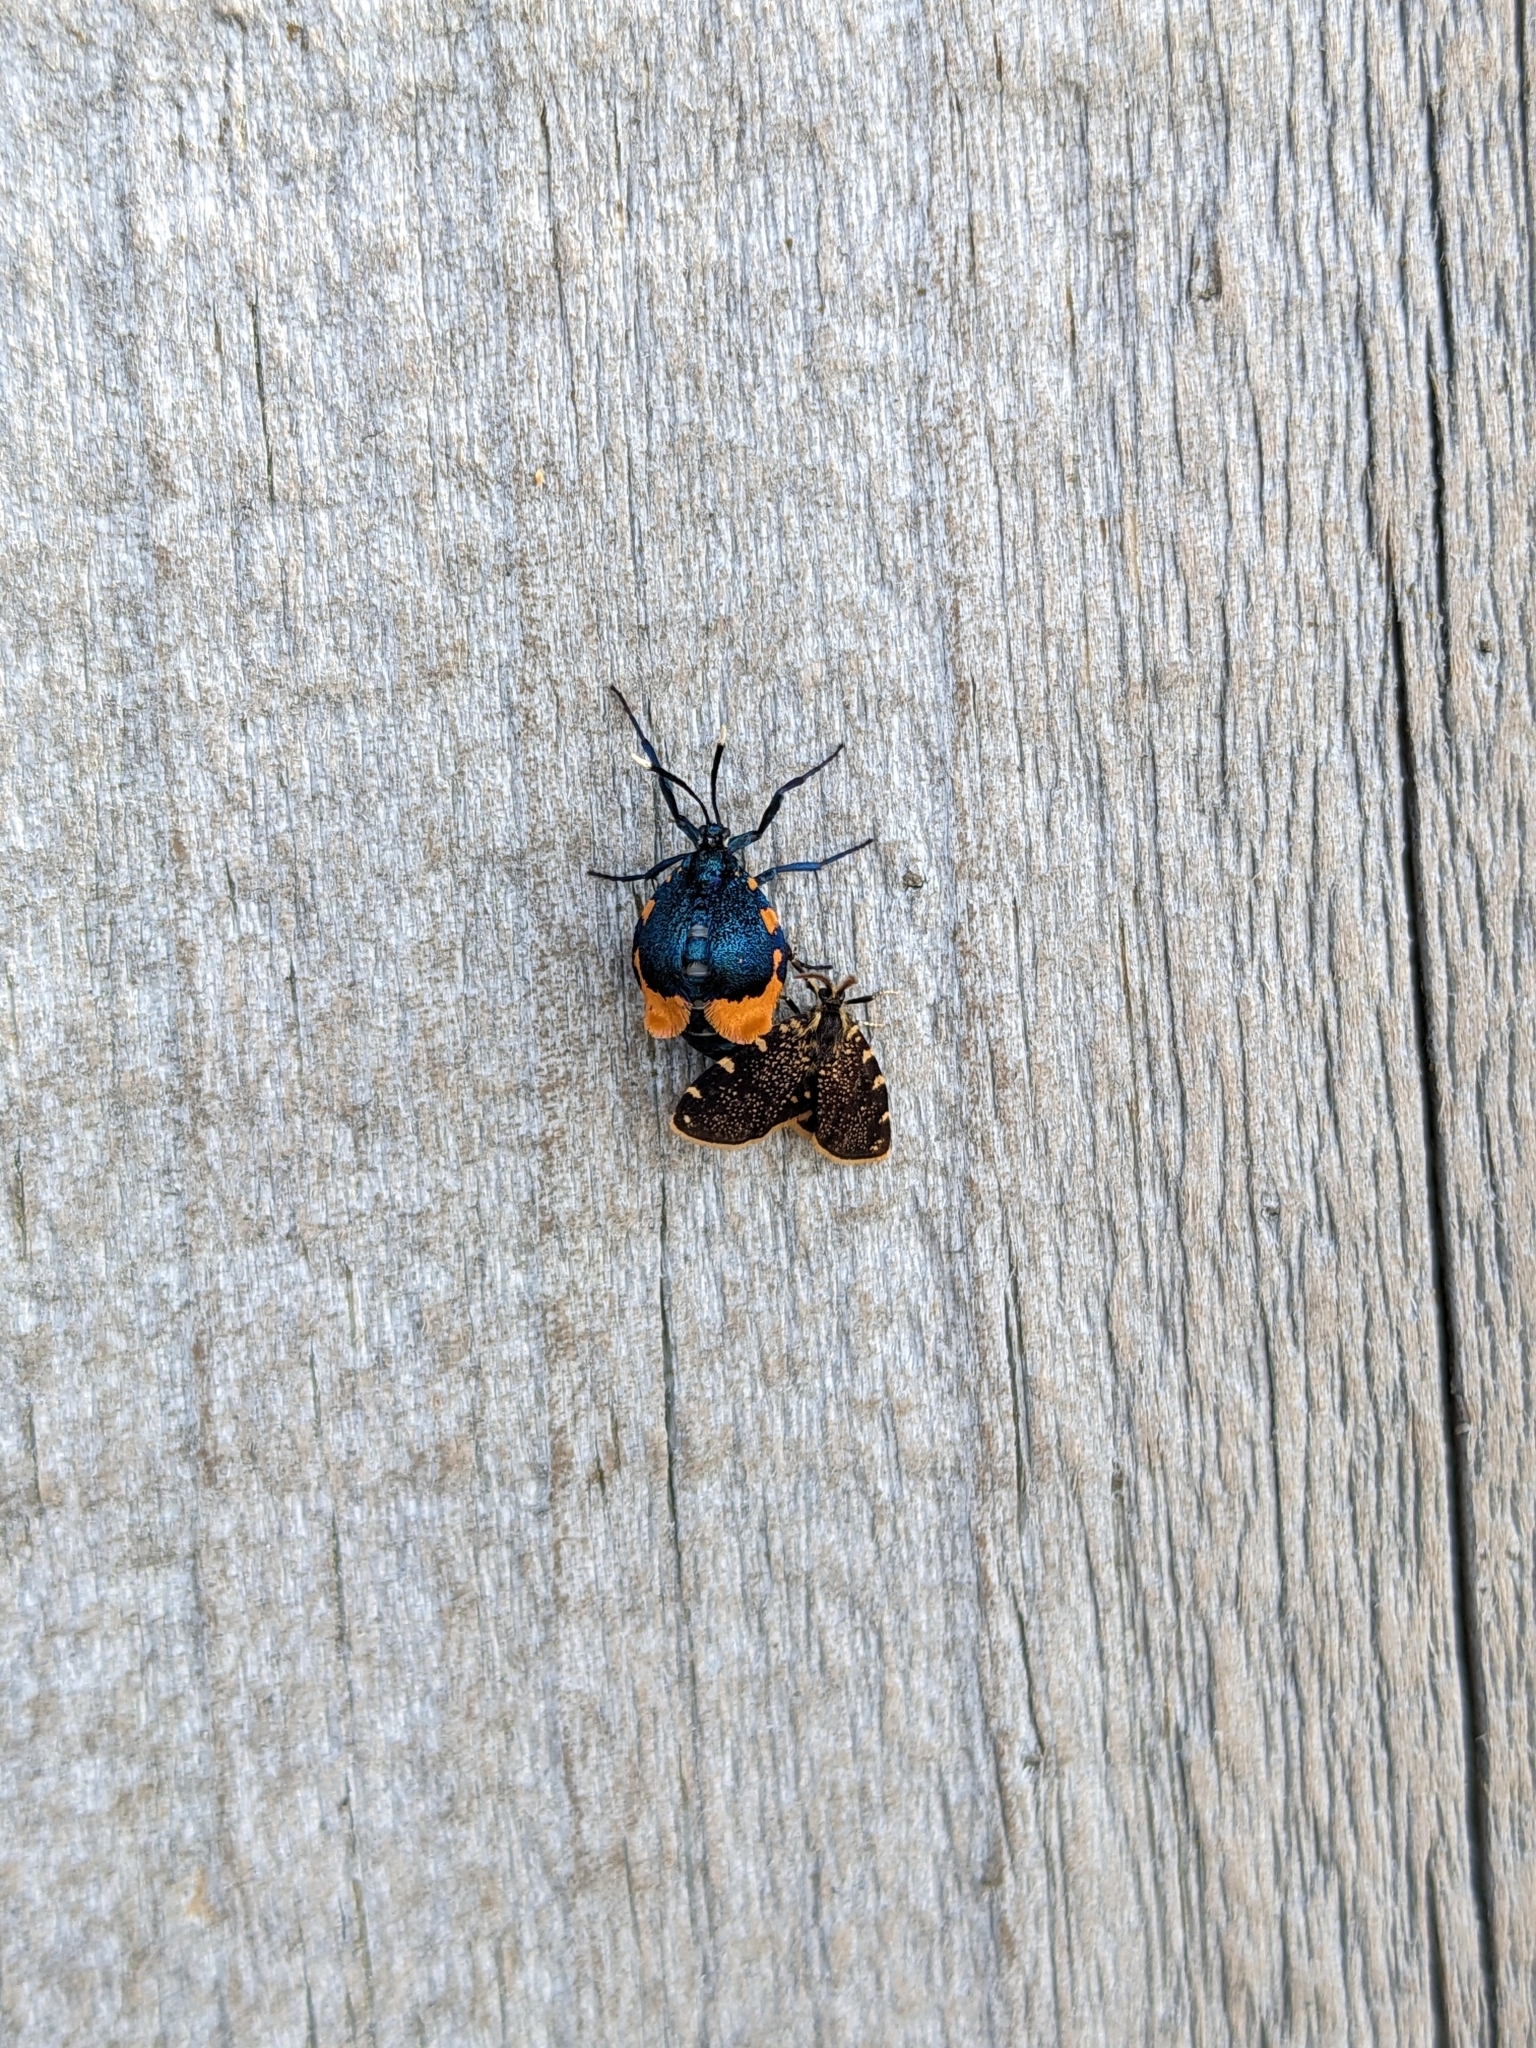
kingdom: Animalia
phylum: Arthropoda
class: Insecta
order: Lepidoptera
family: Psychidae
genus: Cebysa
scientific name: Cebysa leucotelus
